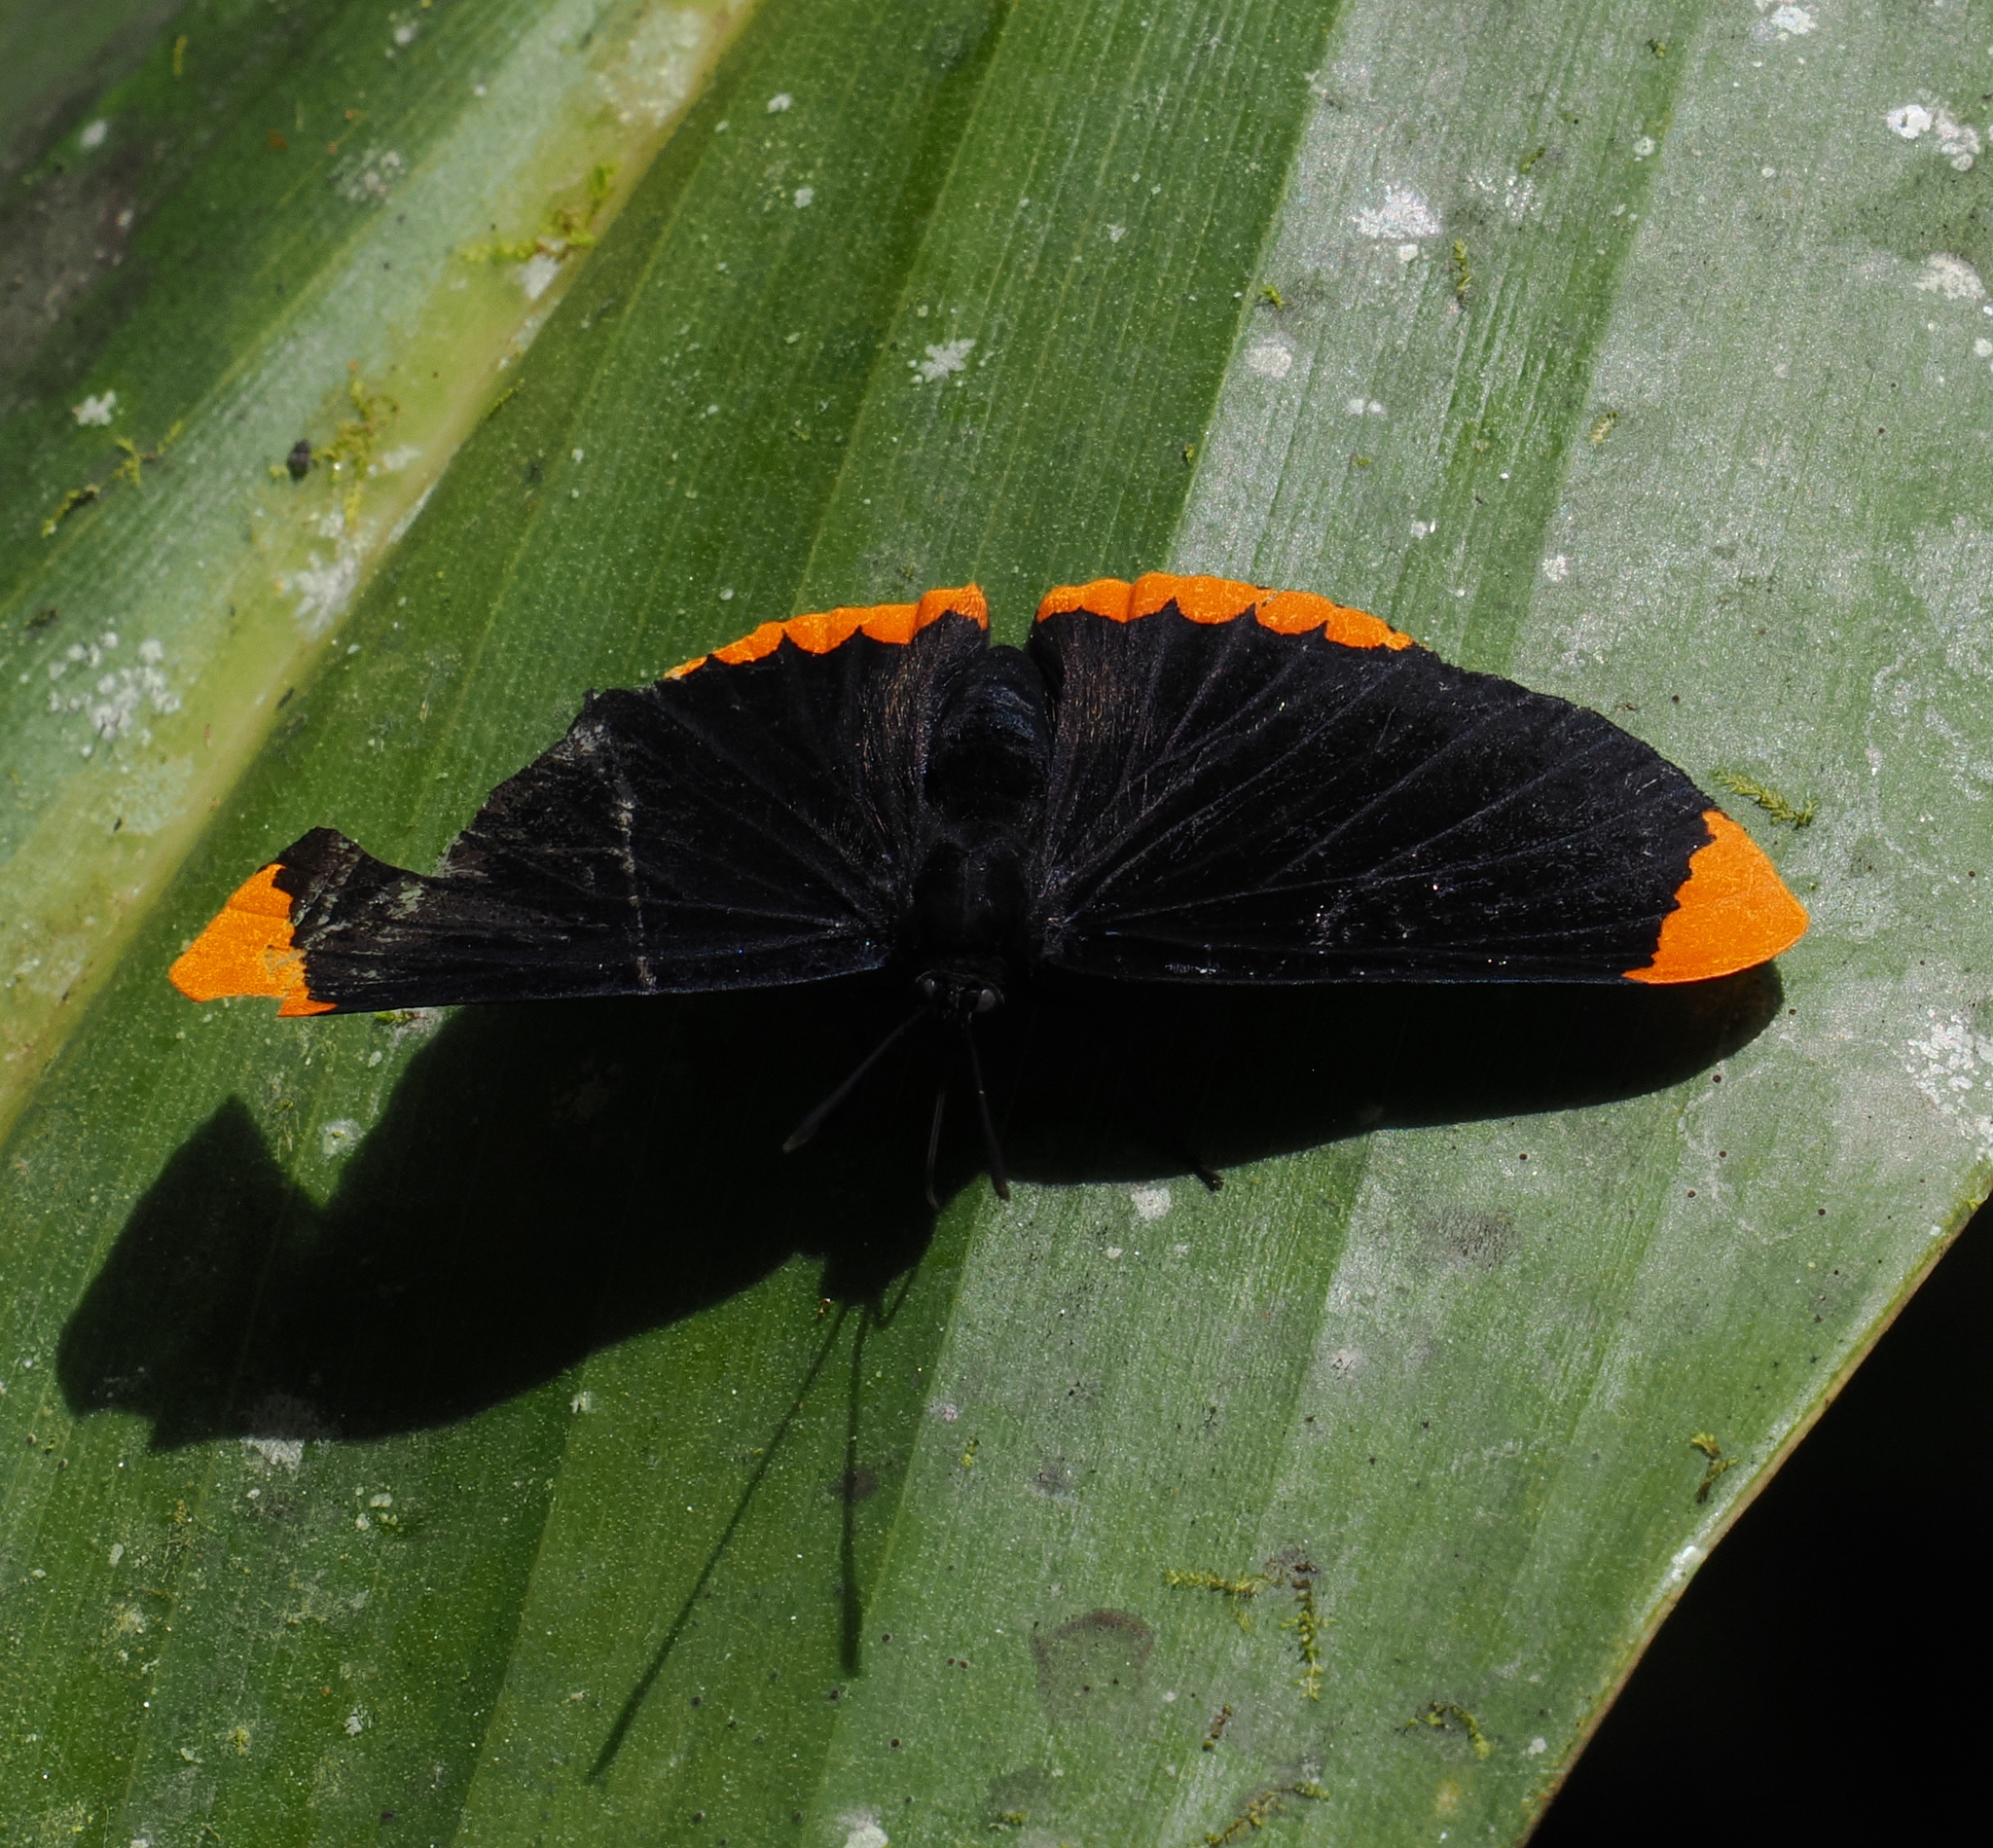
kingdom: Animalia
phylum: Arthropoda
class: Insecta
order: Lepidoptera
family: Lycaenidae
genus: Melanis
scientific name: Melanis pixe
